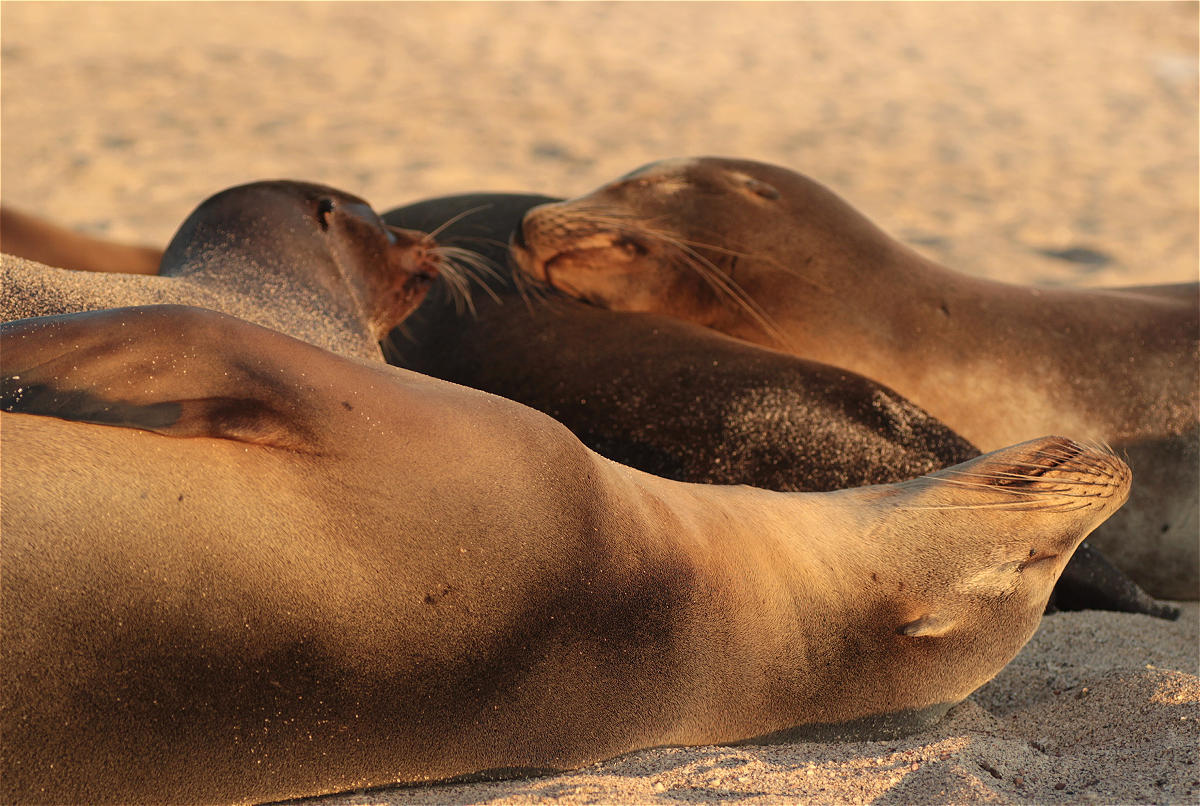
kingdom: Animalia
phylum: Chordata
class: Mammalia
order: Carnivora
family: Otariidae
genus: Zalophus
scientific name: Zalophus wollebaeki
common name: Galapagos sea lion
